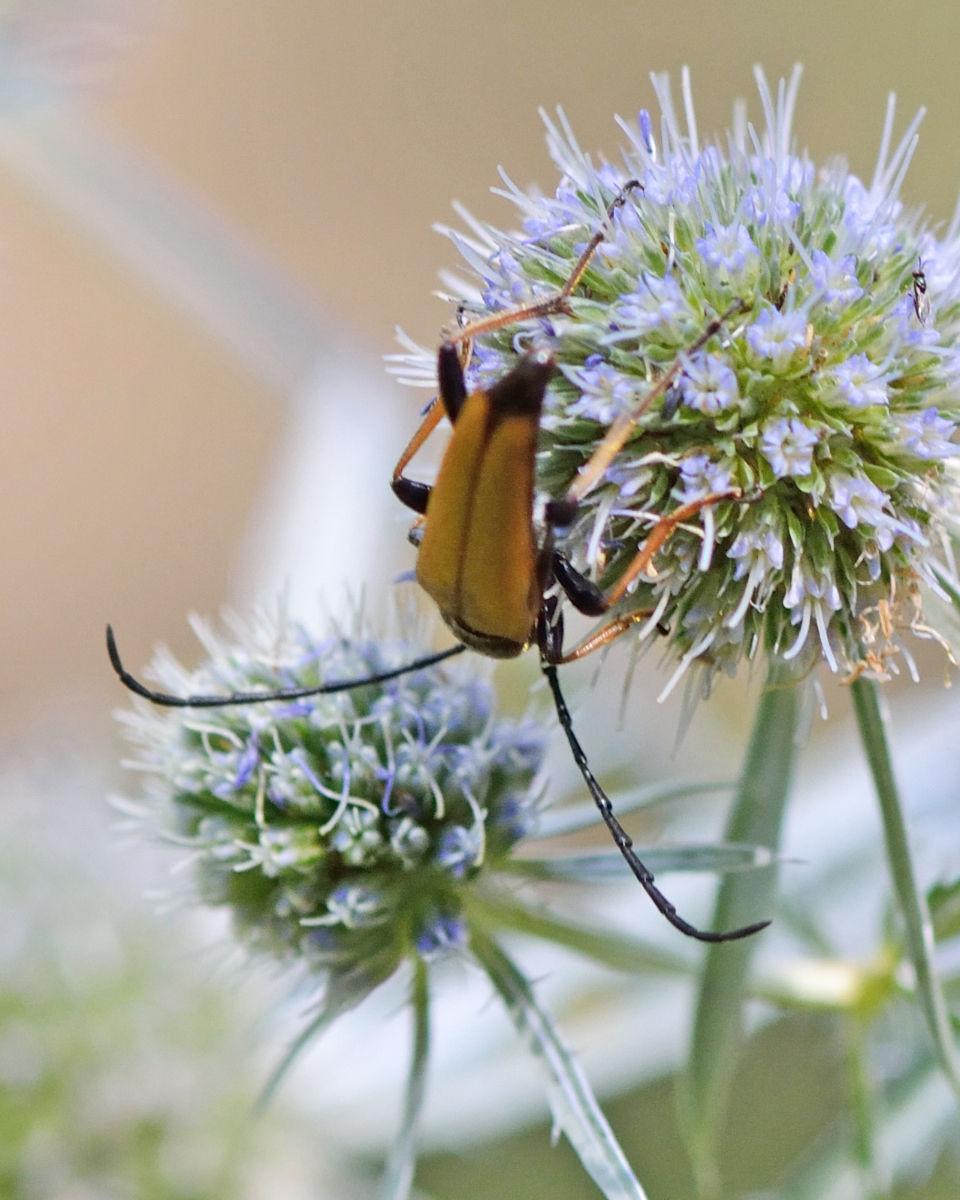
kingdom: Animalia
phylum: Arthropoda
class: Insecta
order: Coleoptera
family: Cerambycidae
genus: Stictoleptura
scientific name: Stictoleptura rubra
